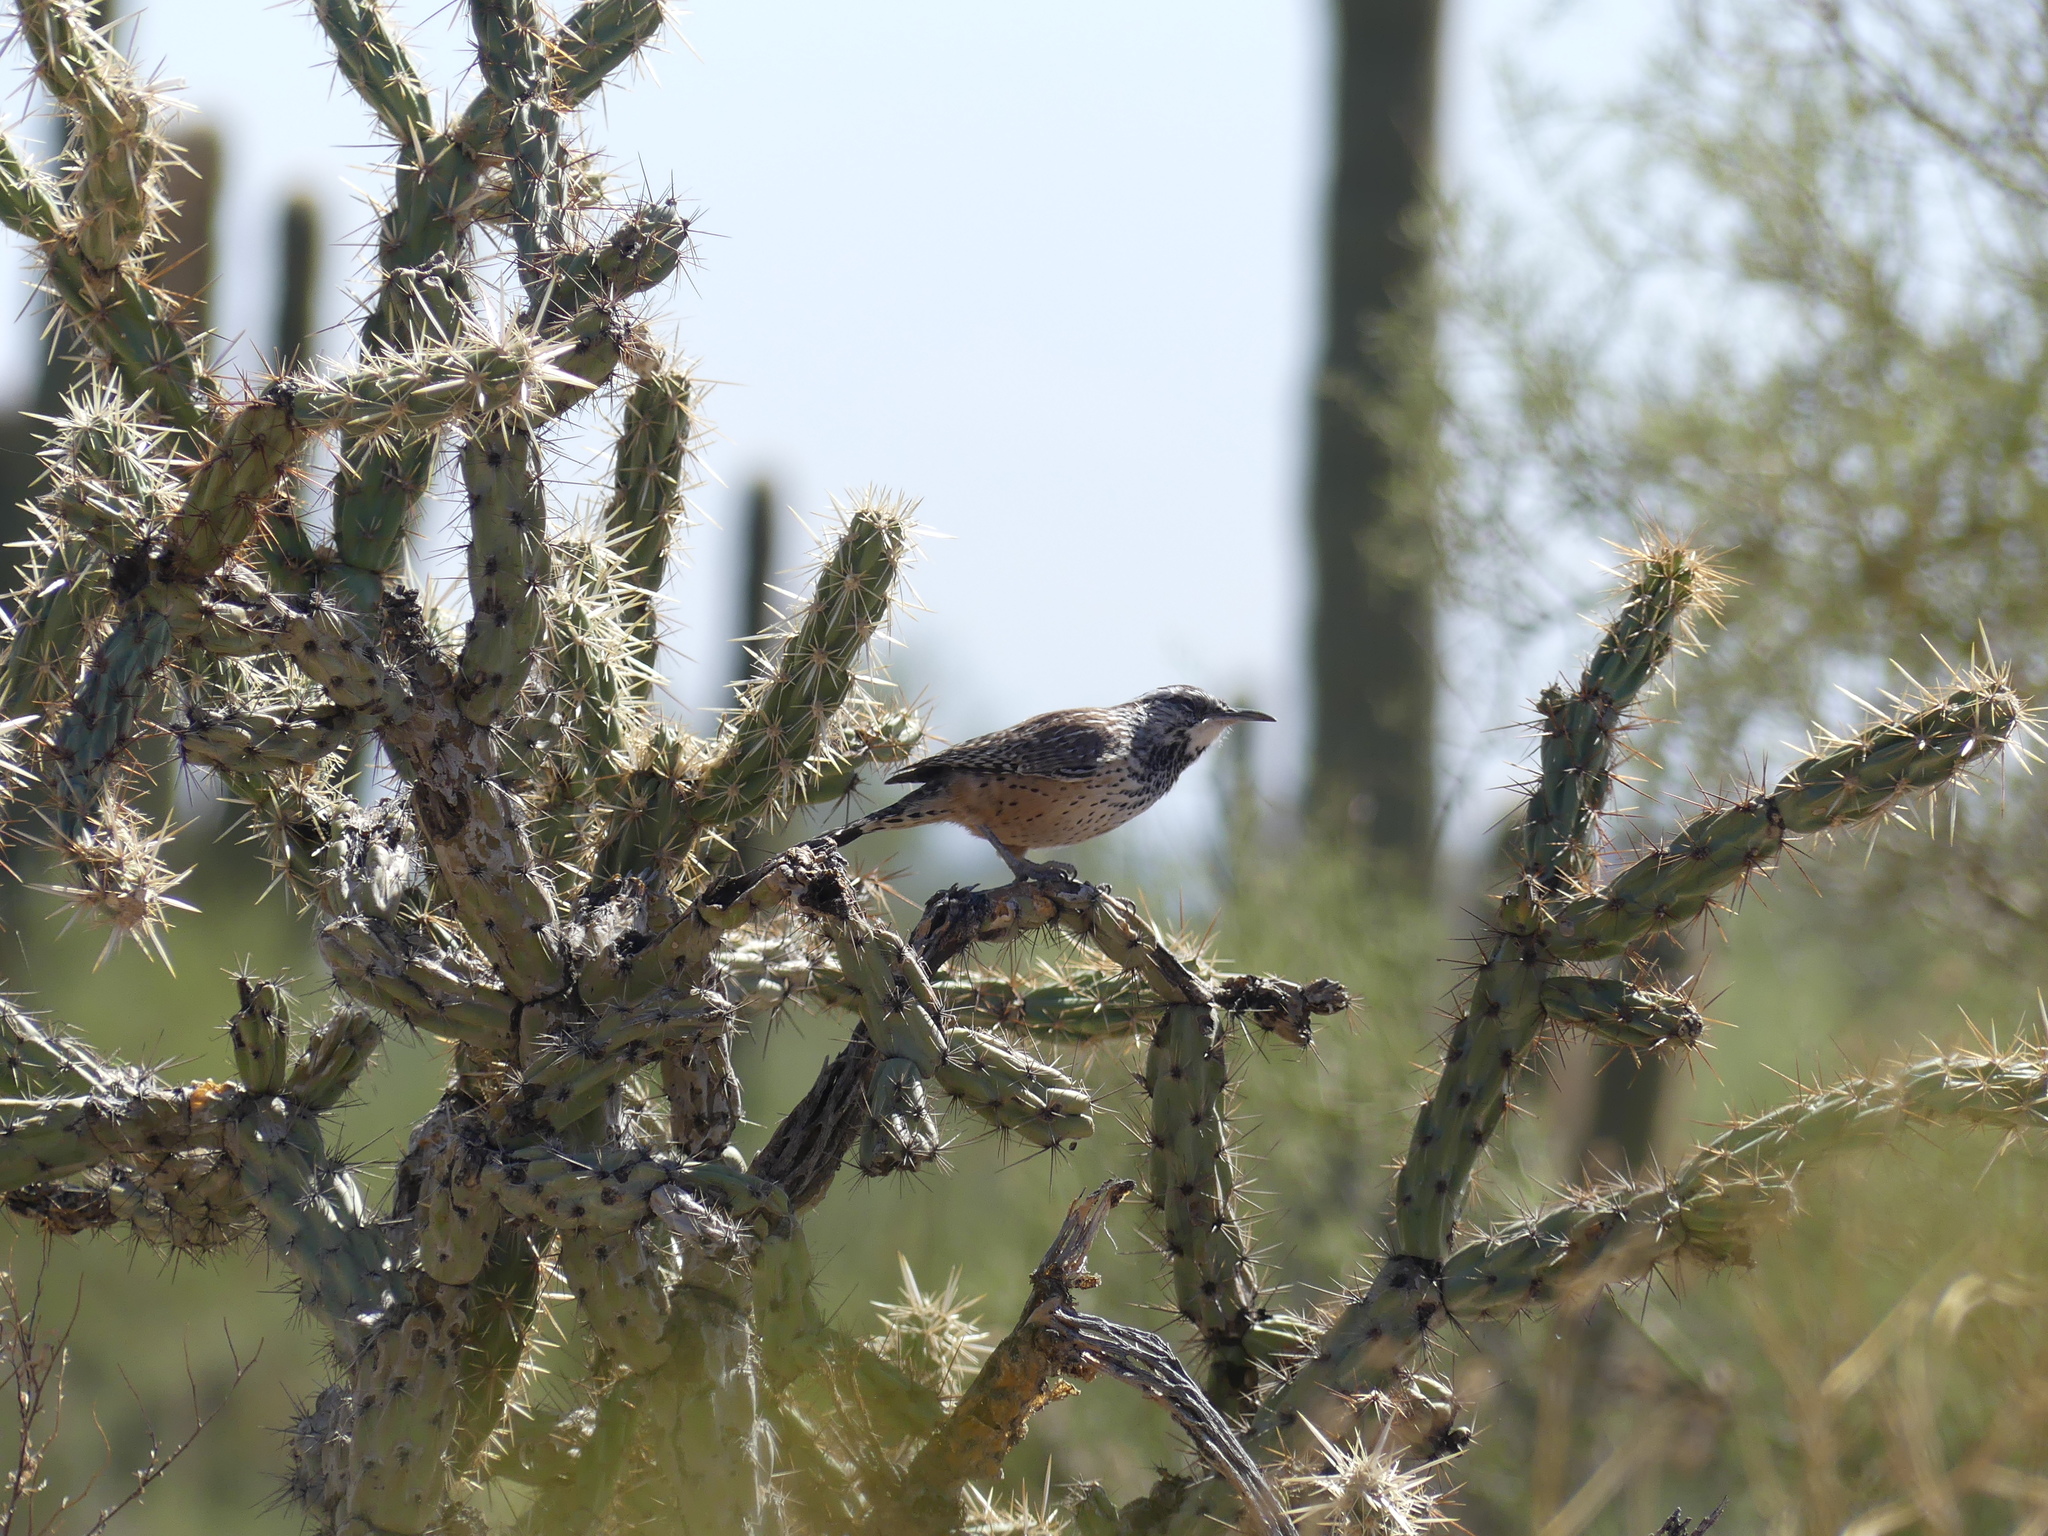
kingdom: Animalia
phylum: Chordata
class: Aves
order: Passeriformes
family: Troglodytidae
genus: Campylorhynchus
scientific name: Campylorhynchus brunneicapillus
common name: Cactus wren
